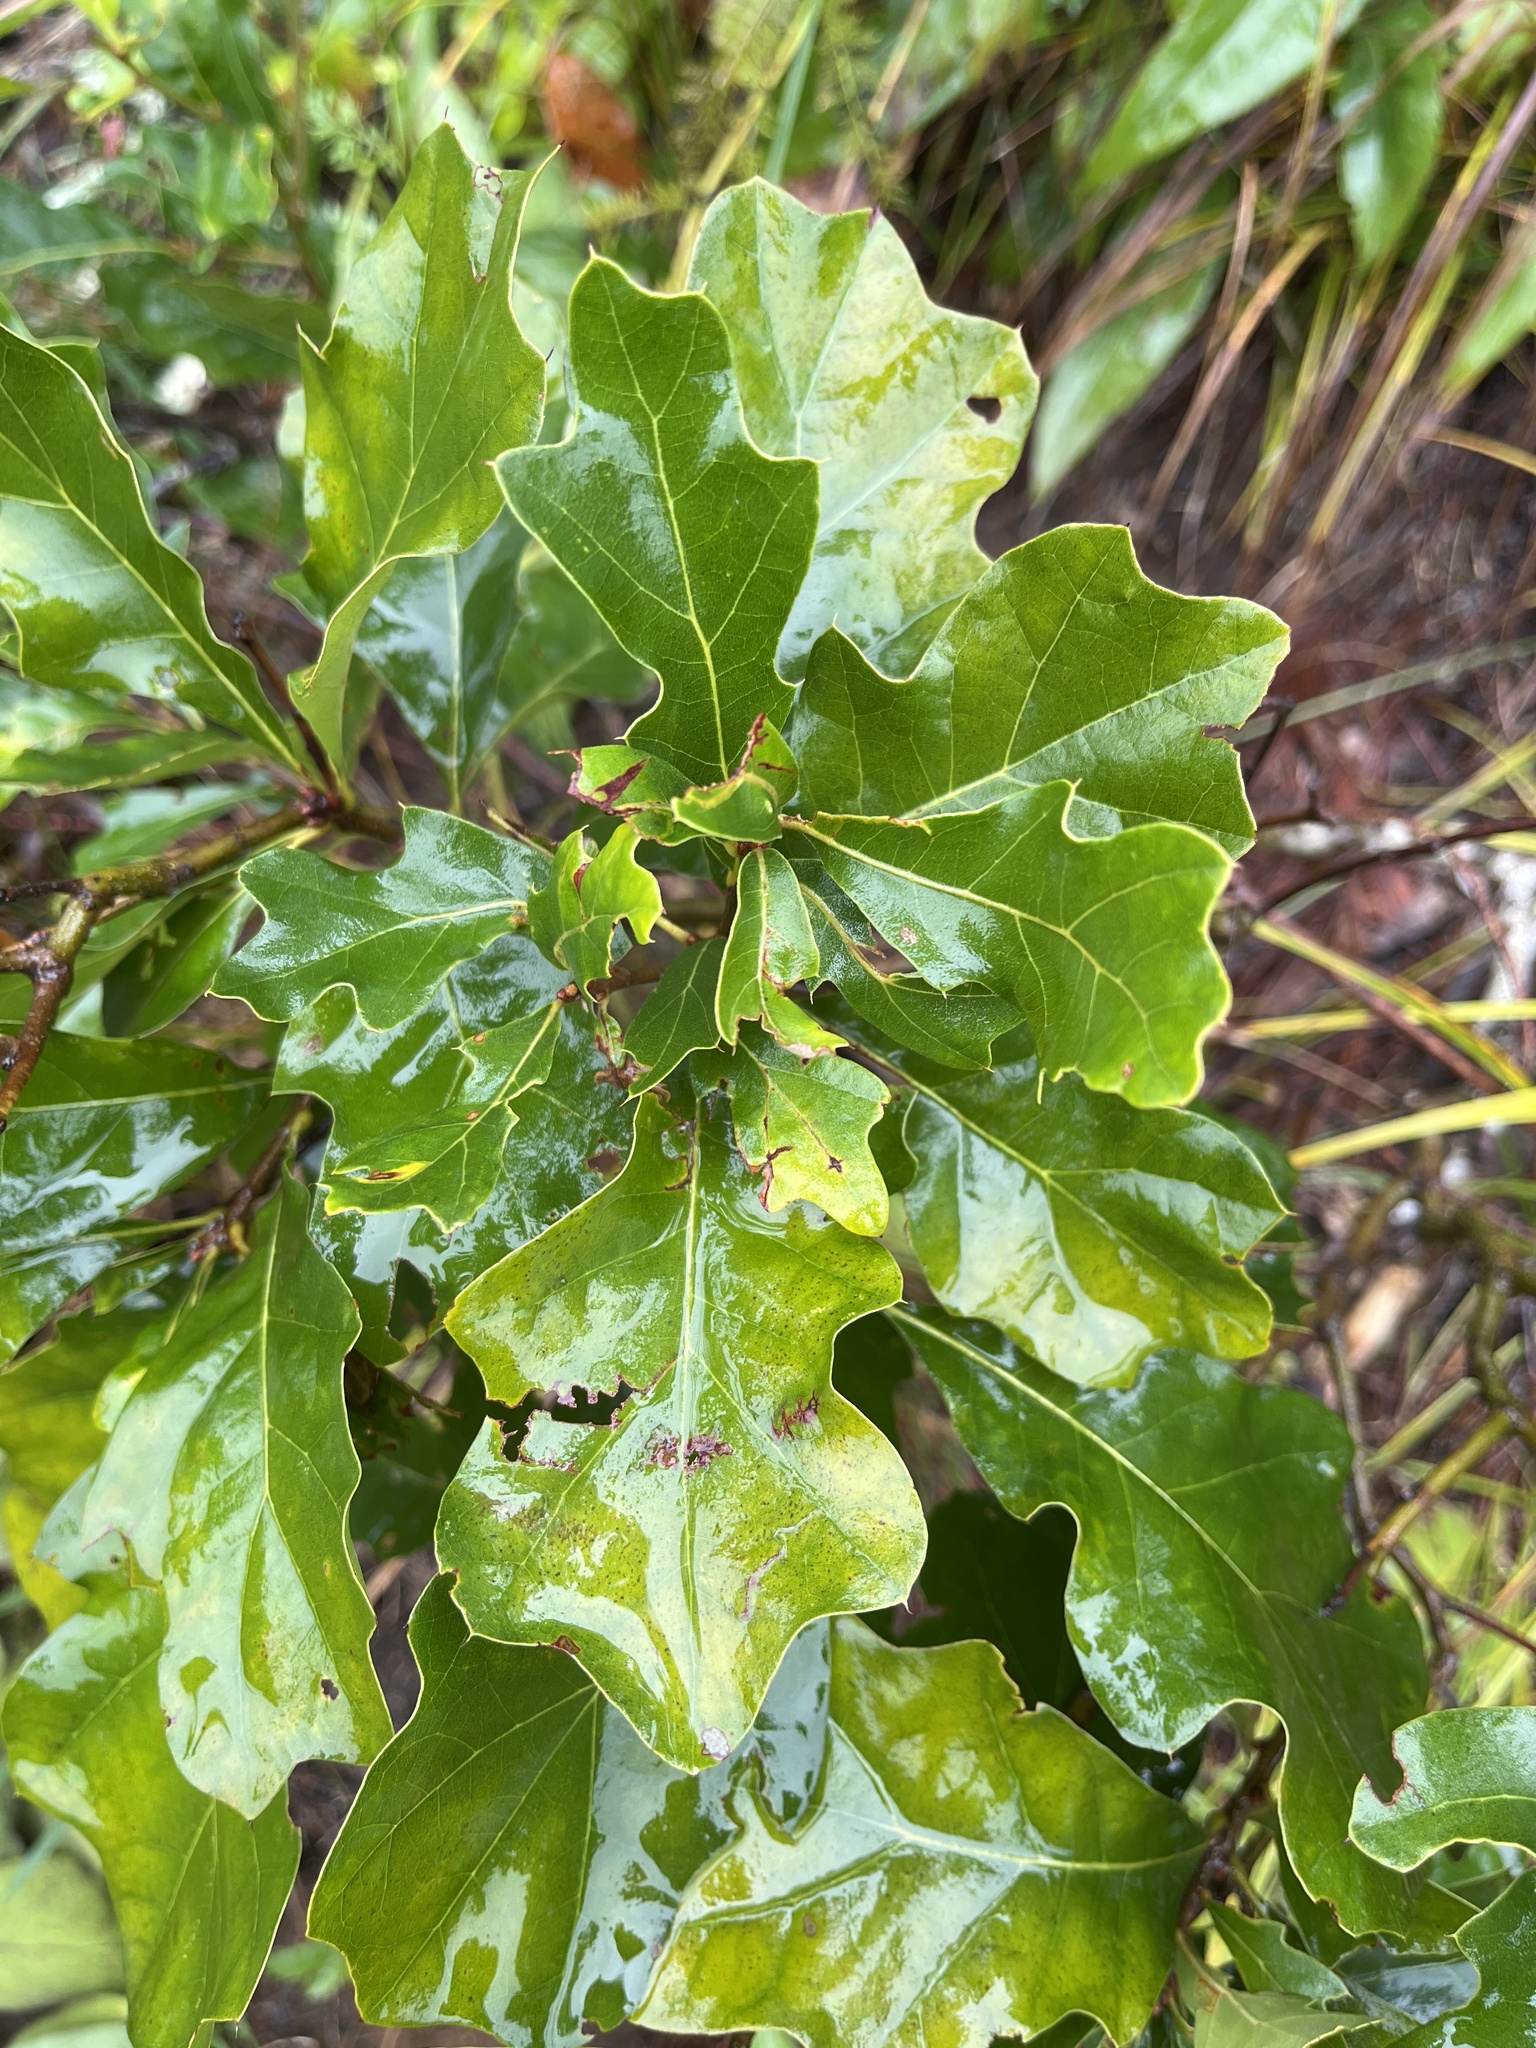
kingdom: Plantae
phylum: Tracheophyta
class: Magnoliopsida
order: Fagales
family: Fagaceae
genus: Quercus
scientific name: Quercus ilicifolia
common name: Bear oak
